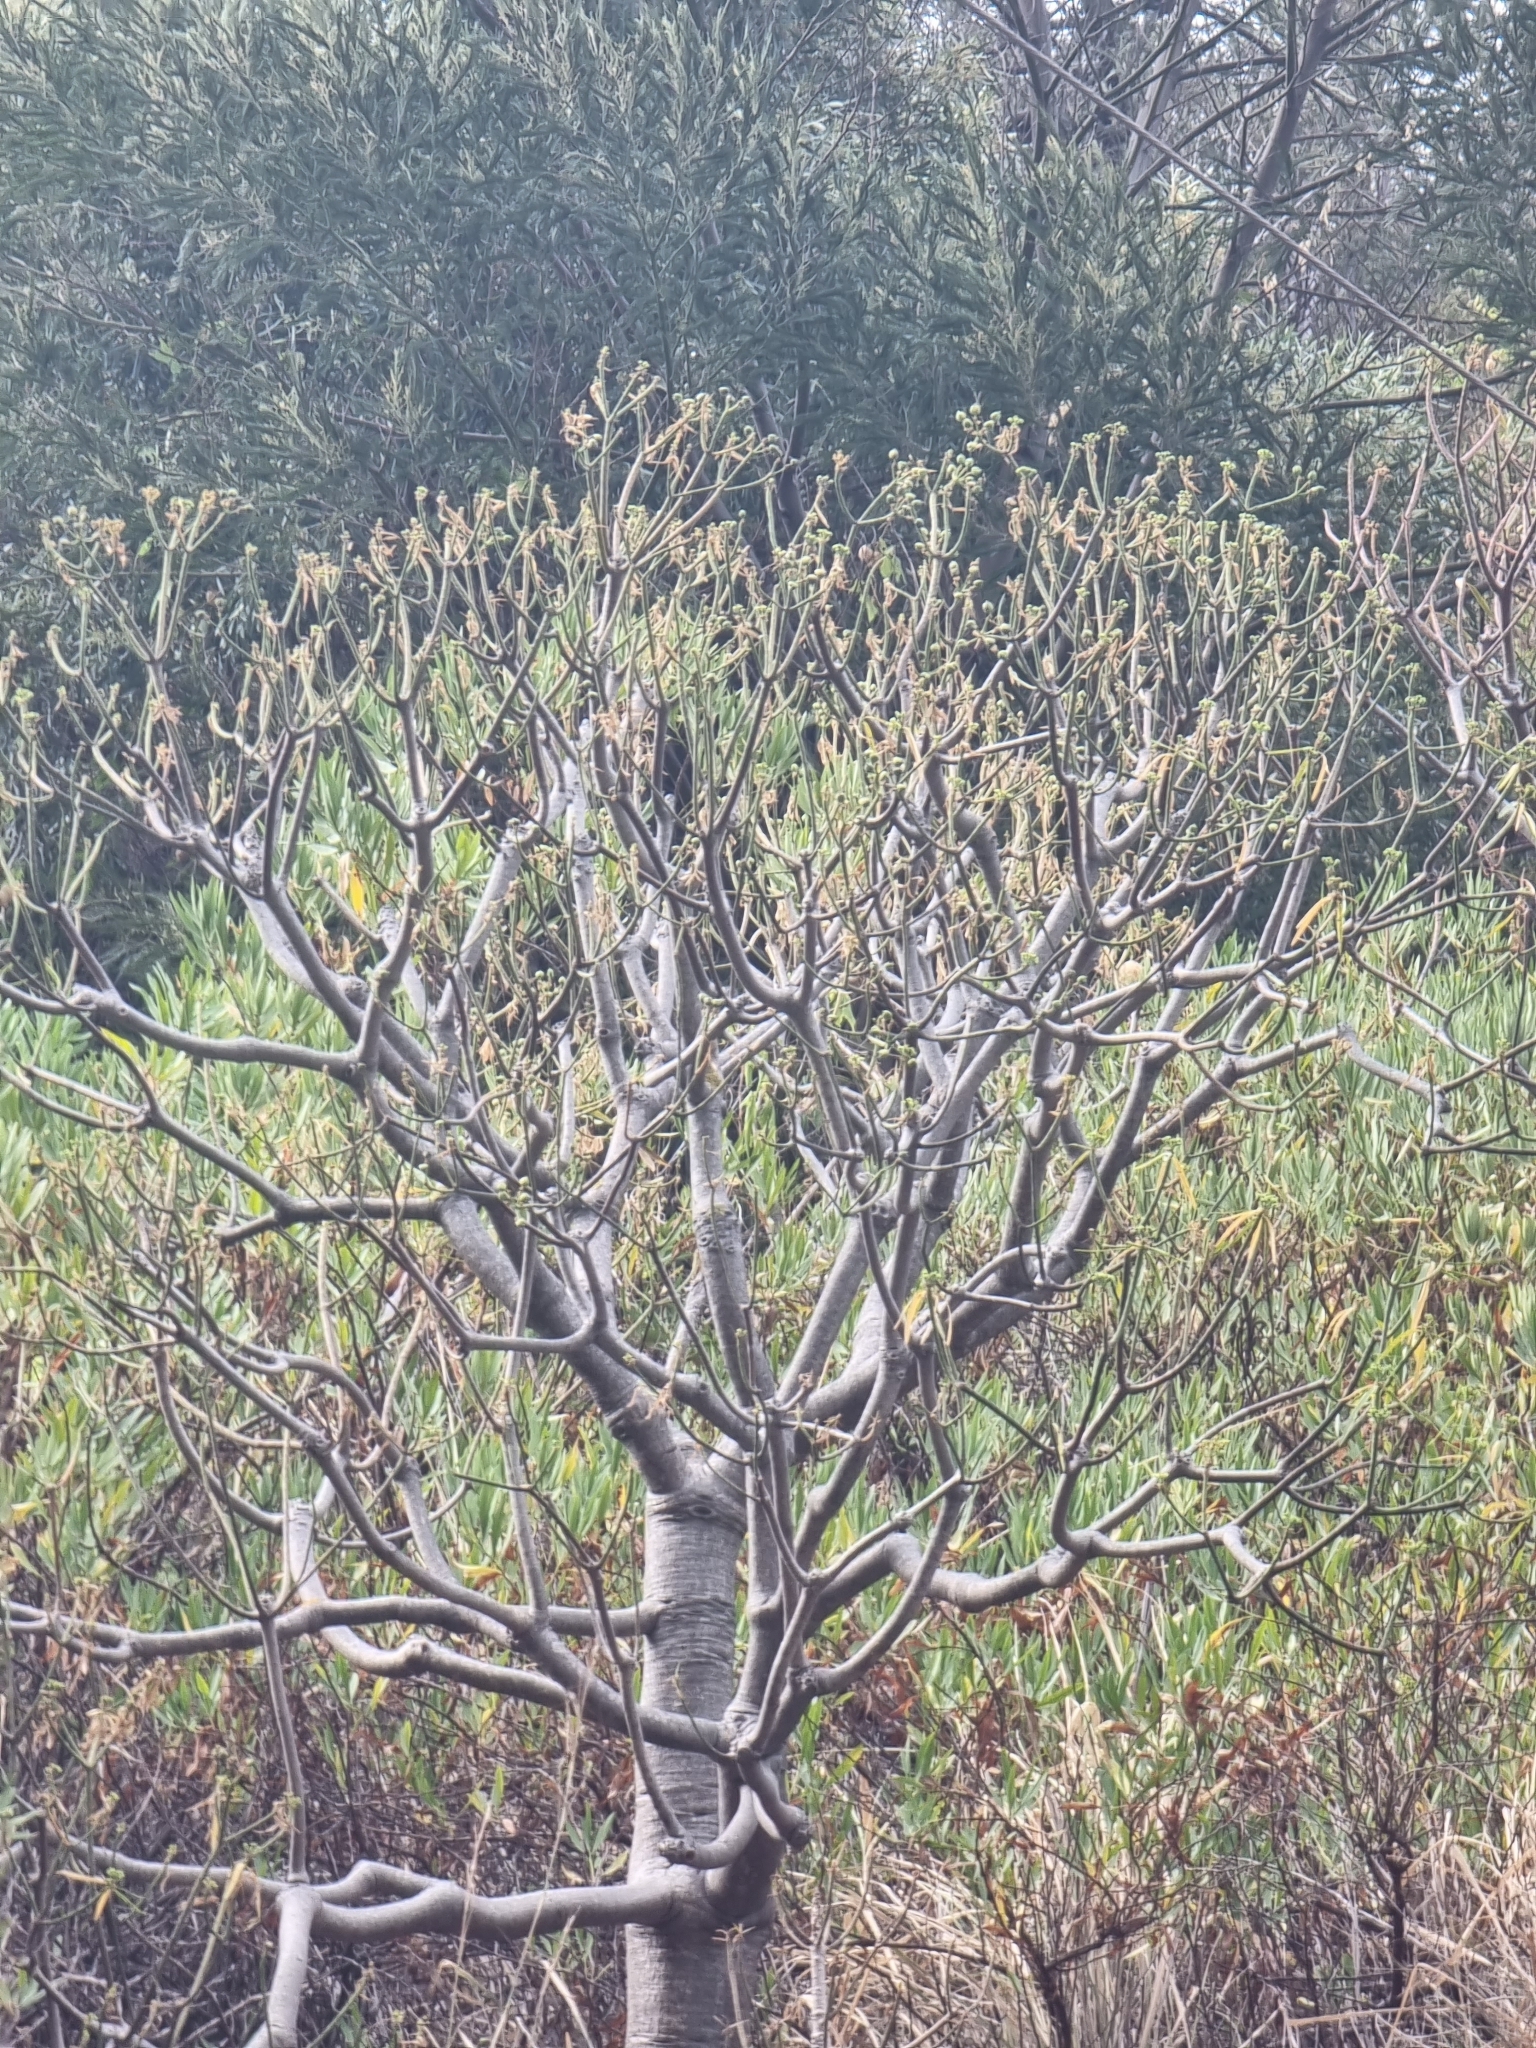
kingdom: Plantae
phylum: Tracheophyta
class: Magnoliopsida
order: Malpighiales
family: Euphorbiaceae
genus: Euphorbia
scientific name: Euphorbia piscatoria
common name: Fish-stunning spurge
